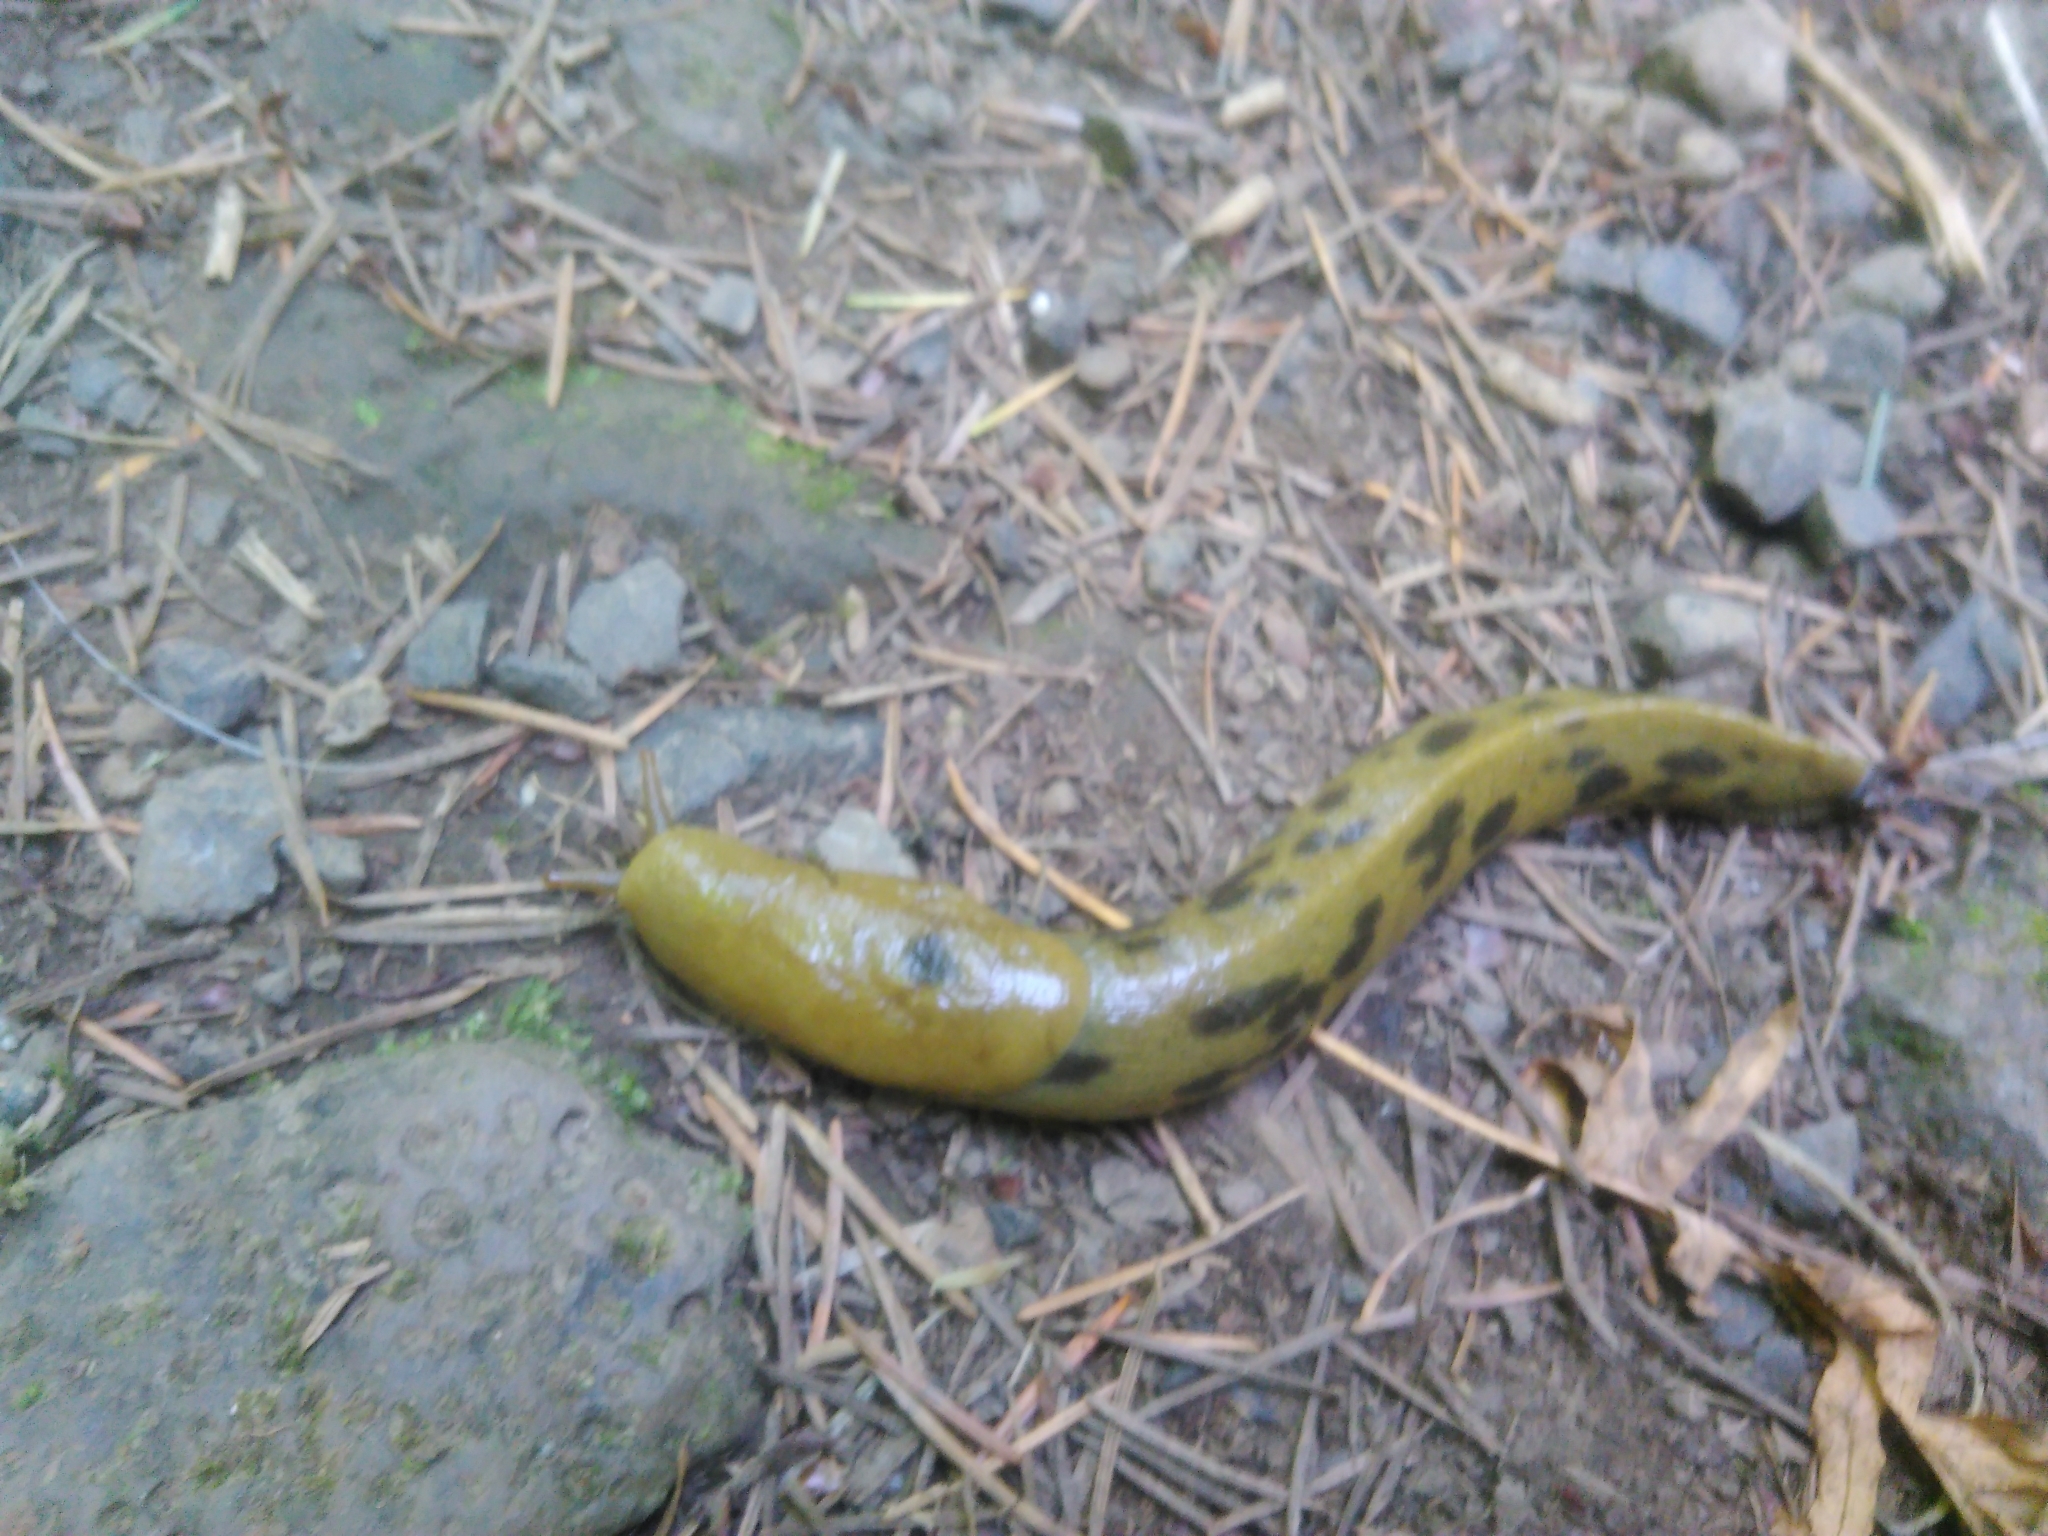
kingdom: Animalia
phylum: Mollusca
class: Gastropoda
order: Stylommatophora
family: Ariolimacidae
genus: Ariolimax
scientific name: Ariolimax columbianus
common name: Pacific banana slug
